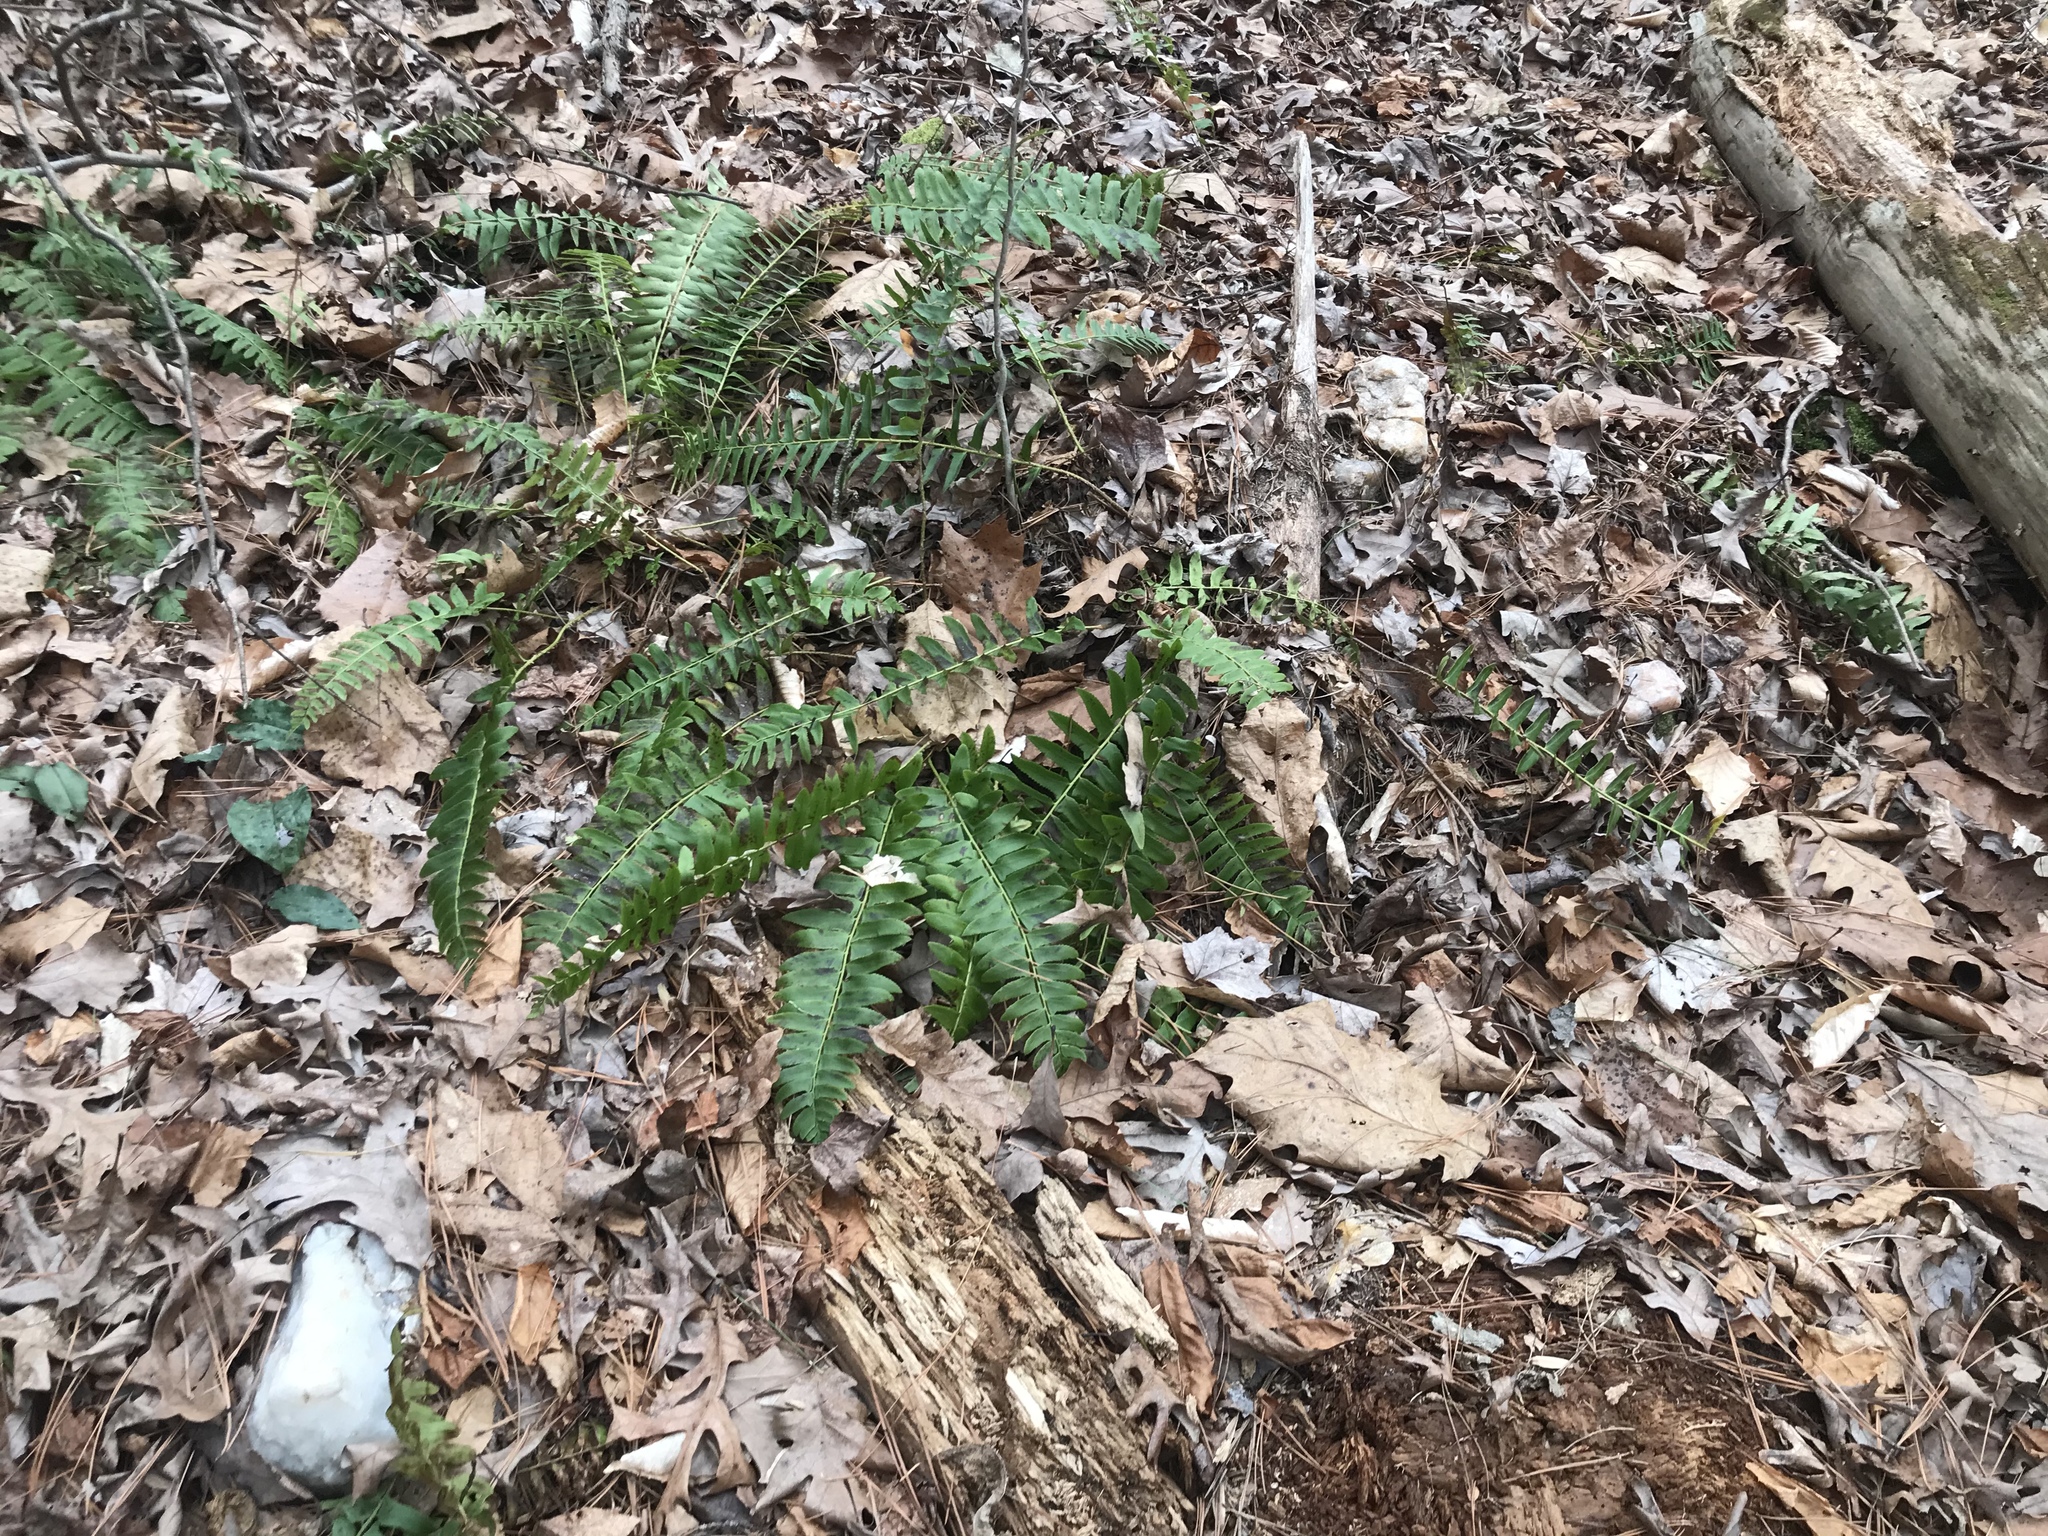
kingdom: Plantae
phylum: Tracheophyta
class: Polypodiopsida
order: Polypodiales
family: Dryopteridaceae
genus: Polystichum
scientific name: Polystichum acrostichoides
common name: Christmas fern
